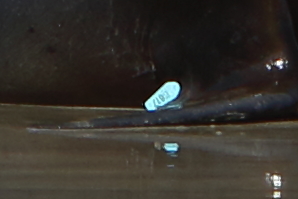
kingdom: Animalia
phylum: Chordata
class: Mammalia
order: Carnivora
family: Otariidae
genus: Phocarctos
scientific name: Phocarctos hookeri
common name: New zealand sea lion
